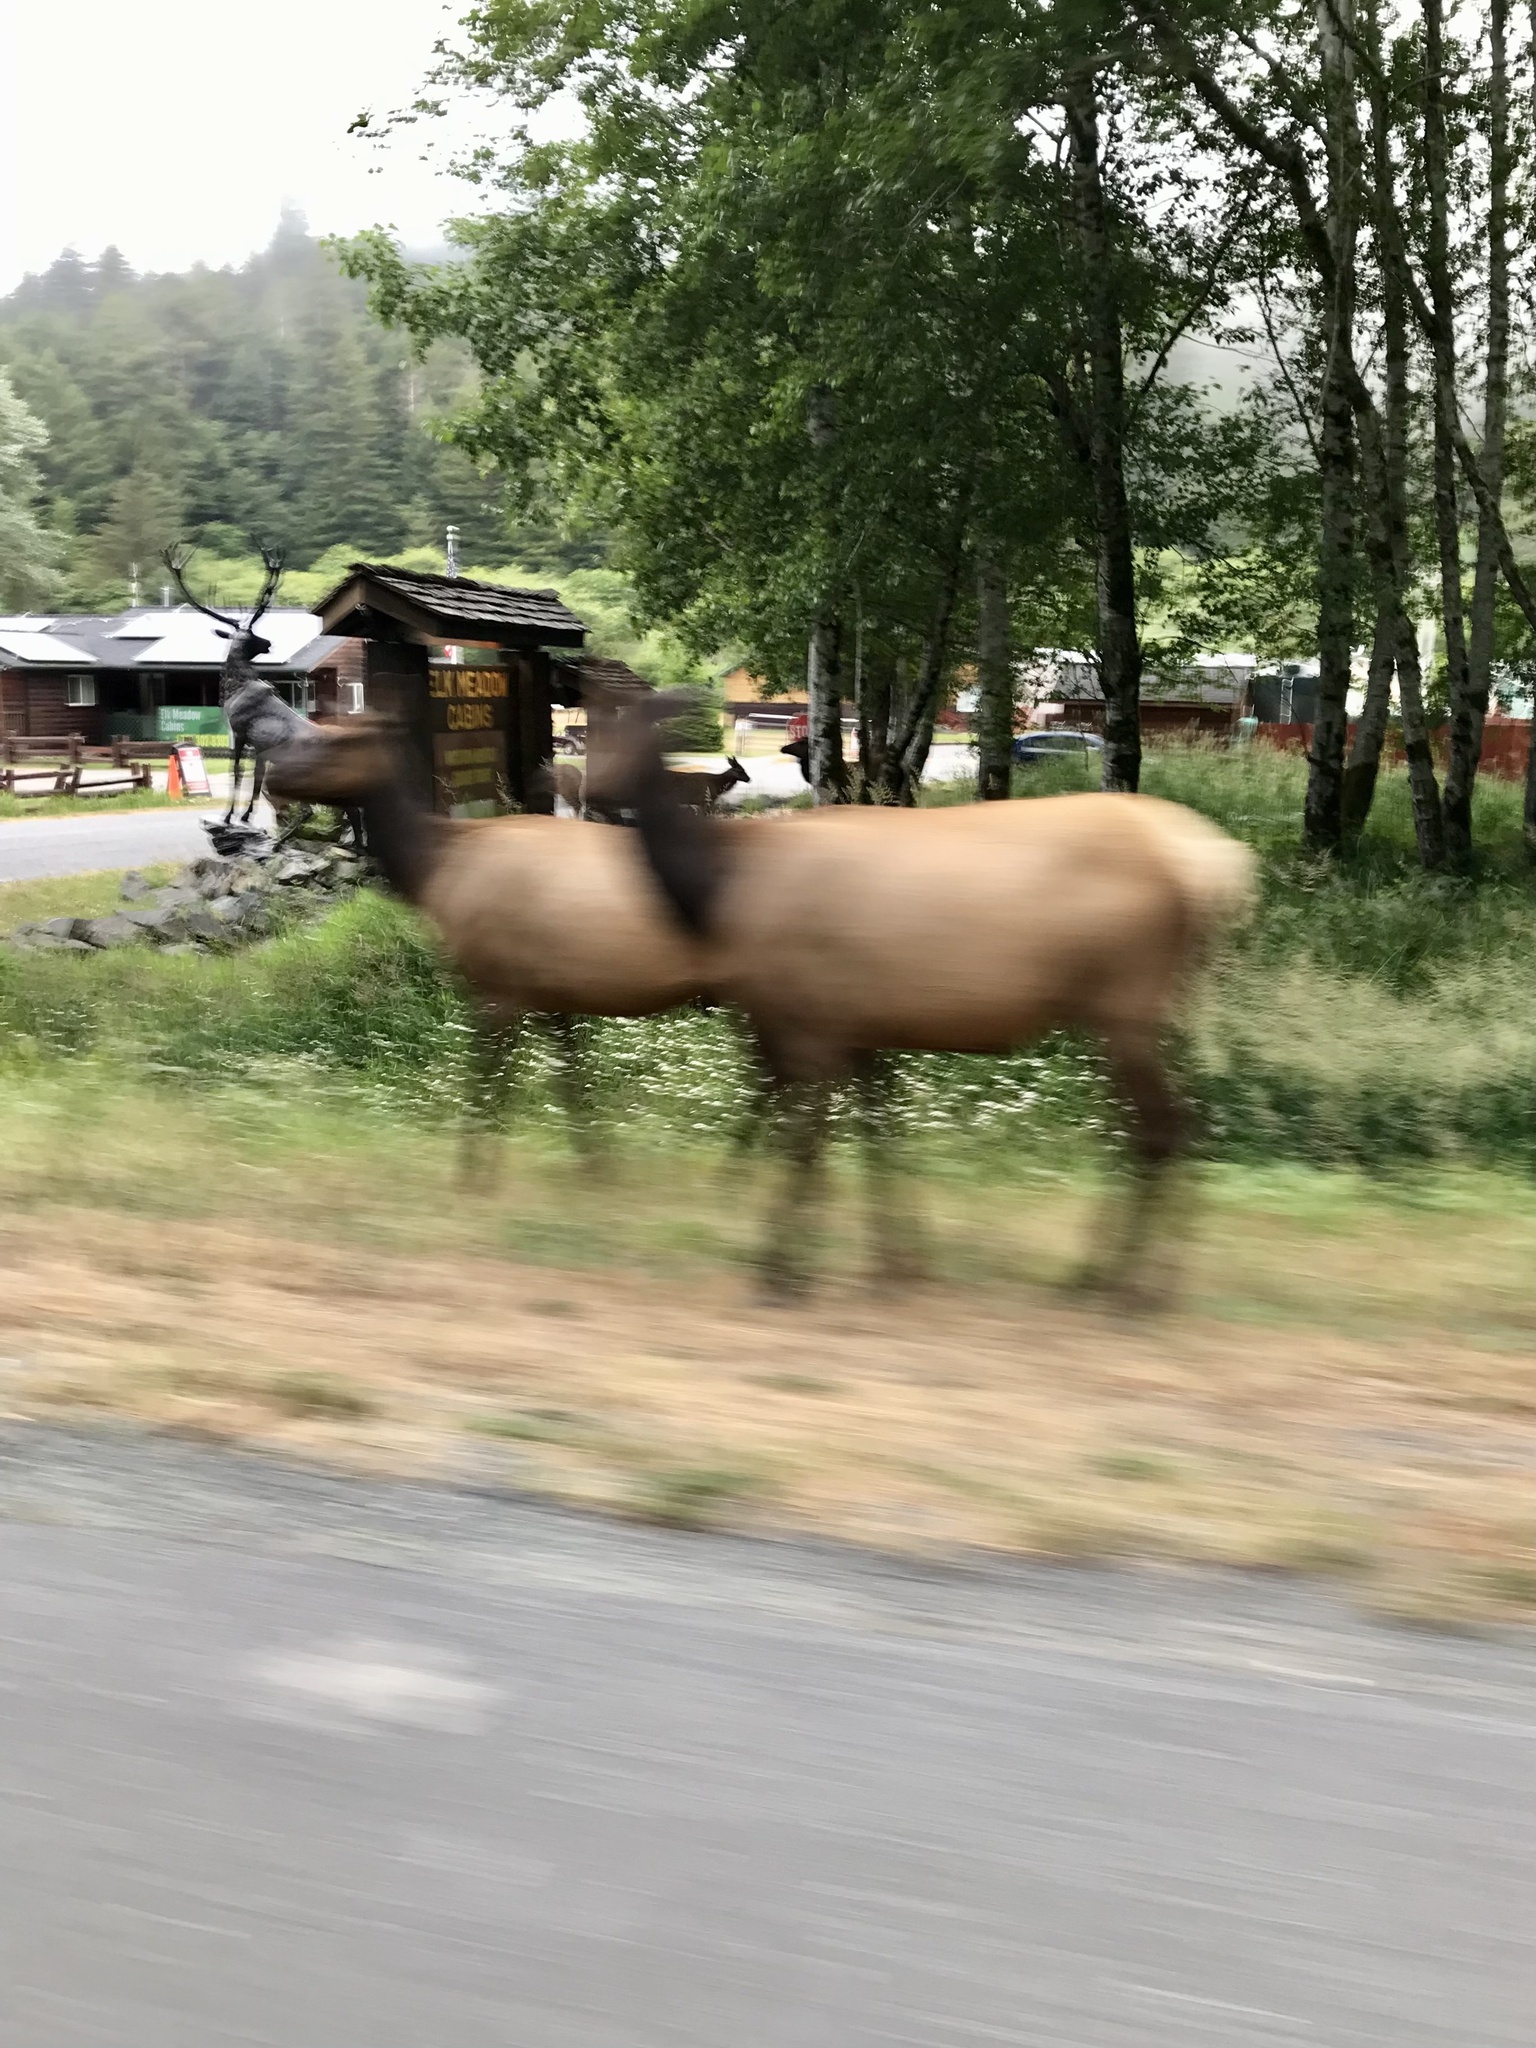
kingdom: Animalia
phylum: Chordata
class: Mammalia
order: Artiodactyla
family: Cervidae
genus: Cervus
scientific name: Cervus elaphus
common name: Red deer
